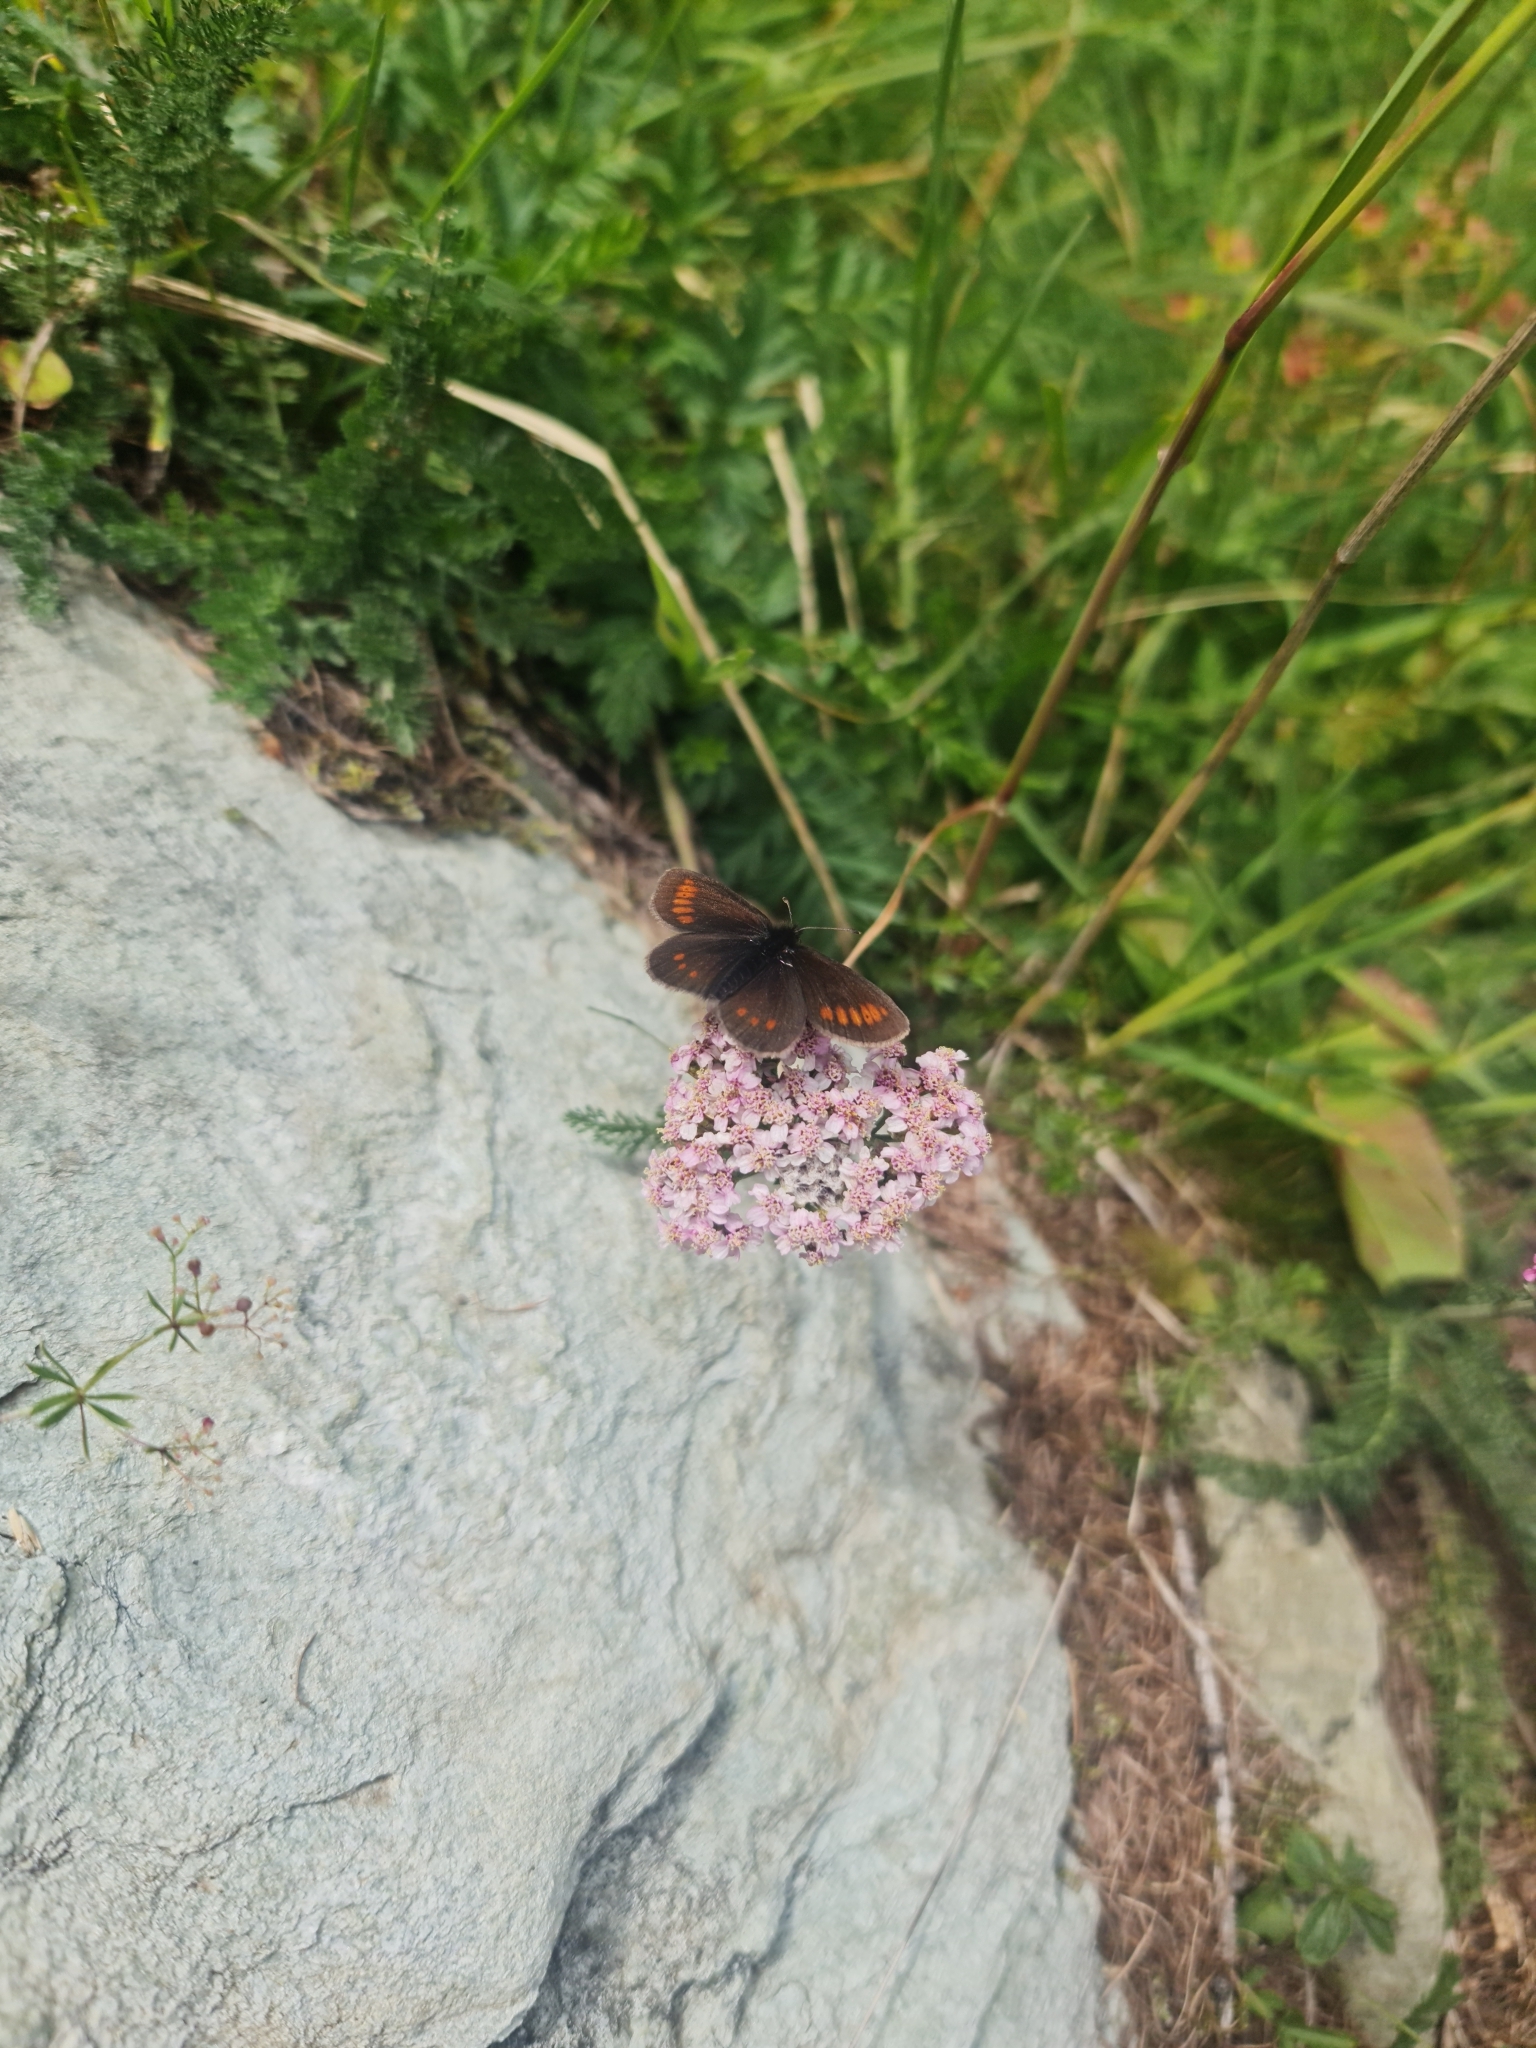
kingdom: Animalia
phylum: Arthropoda
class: Insecta
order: Lepidoptera
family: Nymphalidae
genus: Erebia
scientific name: Erebia melampus
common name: Lesser mountain ringlet
